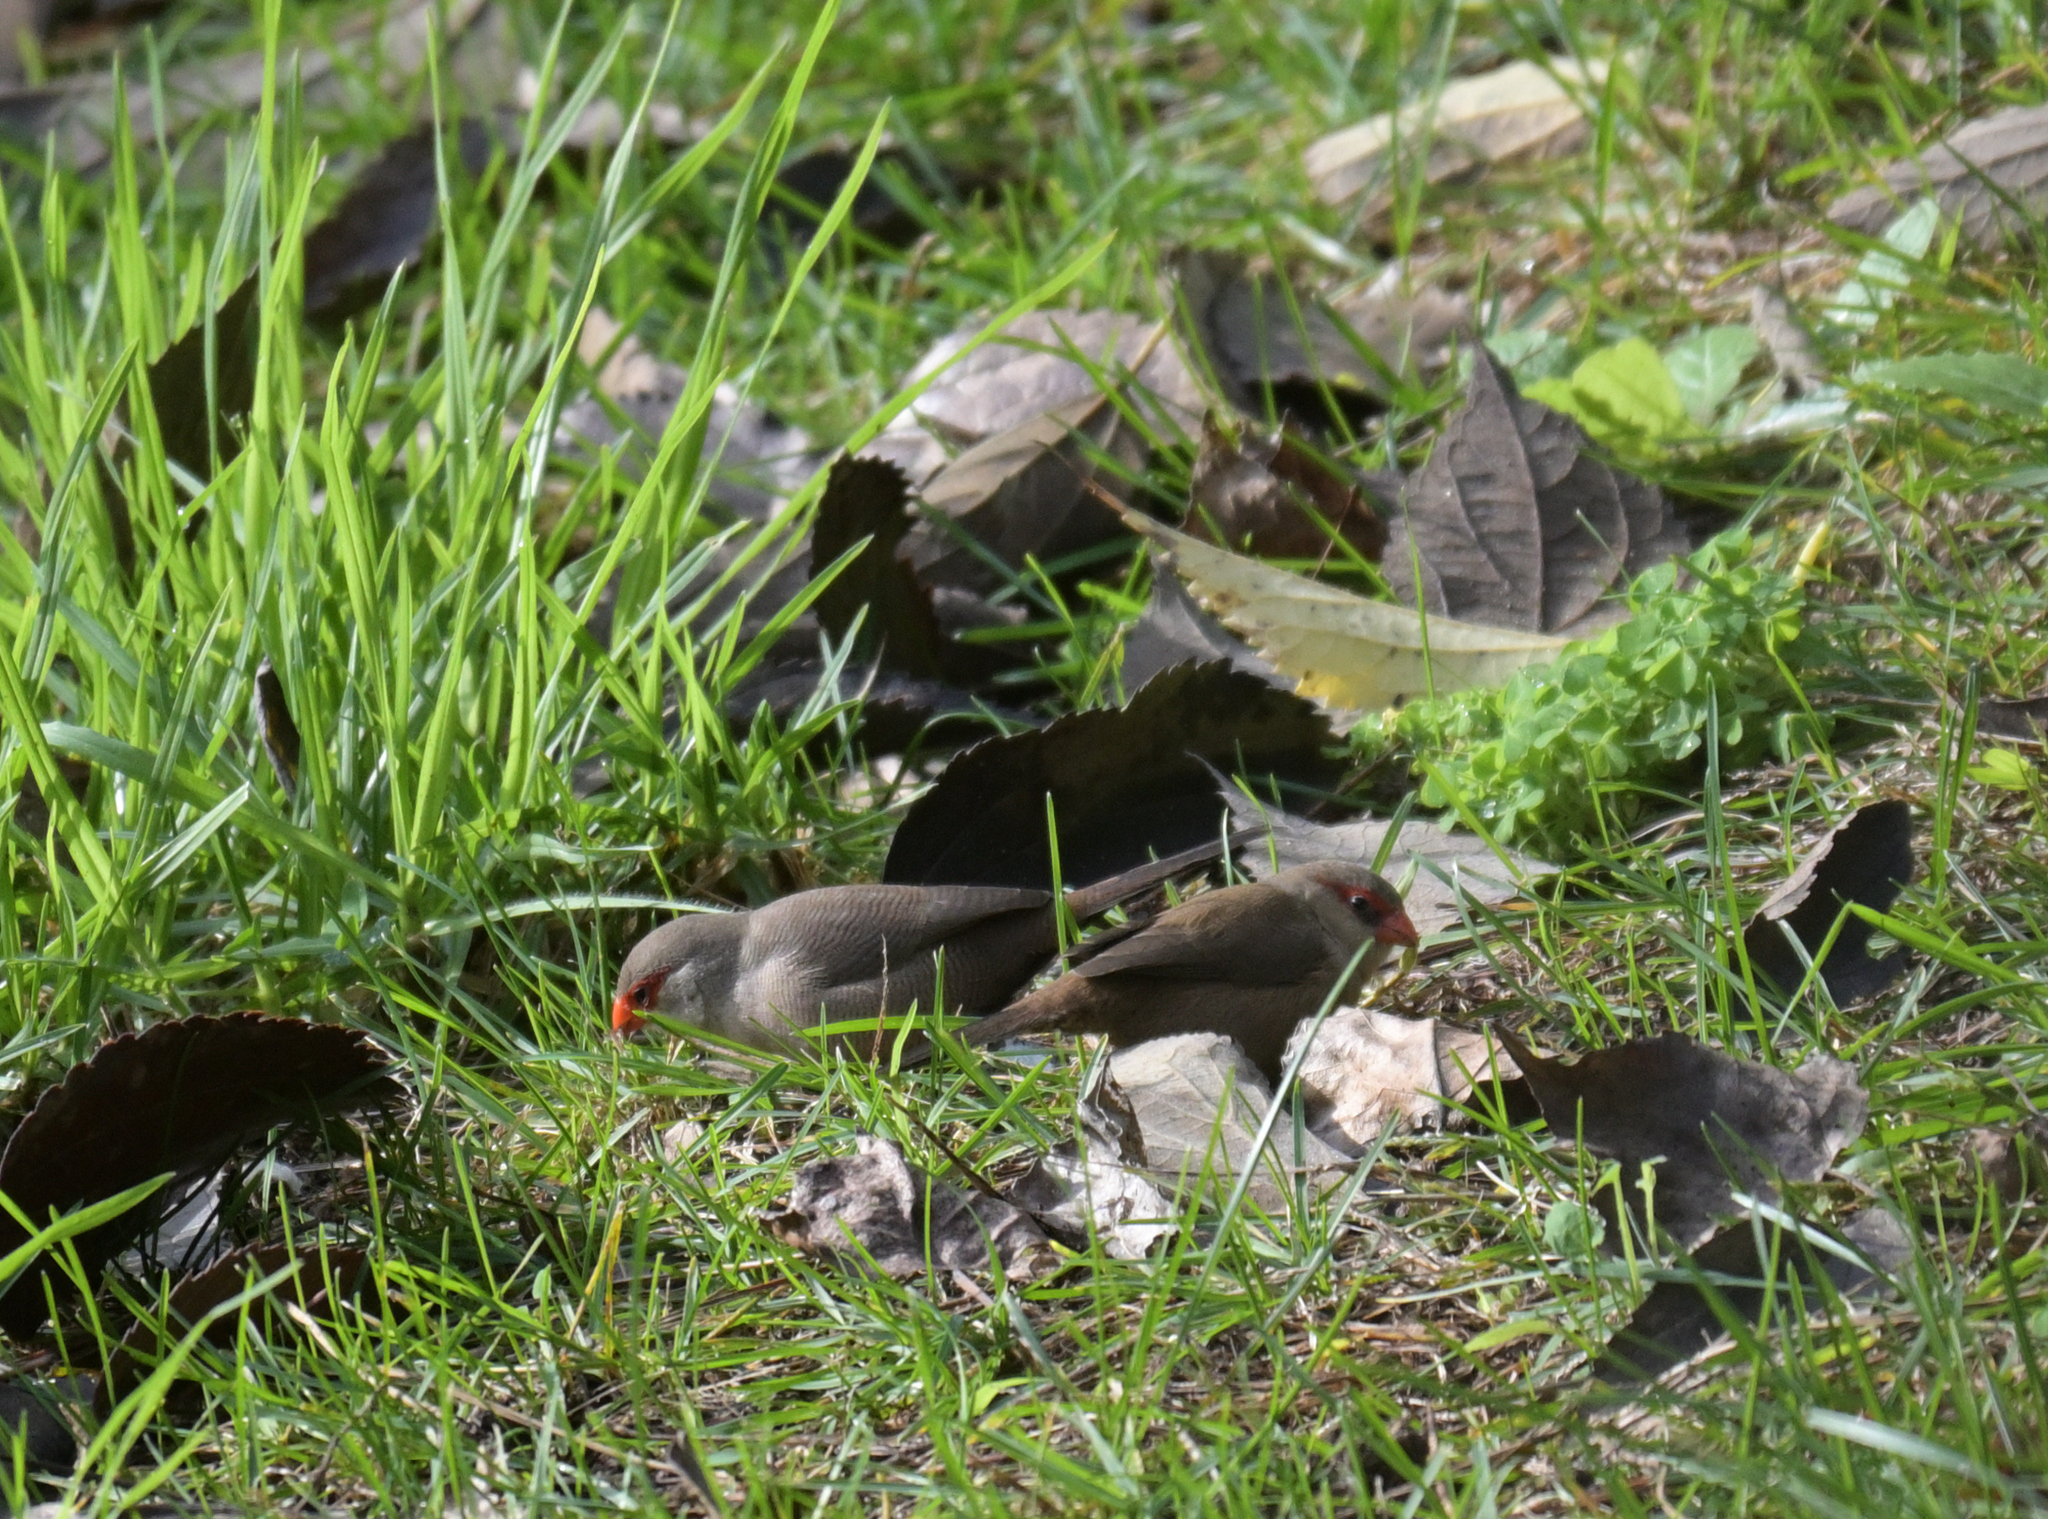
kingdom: Animalia
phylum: Chordata
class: Aves
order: Passeriformes
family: Estrildidae
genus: Estrilda
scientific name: Estrilda astrild
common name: Common waxbill
